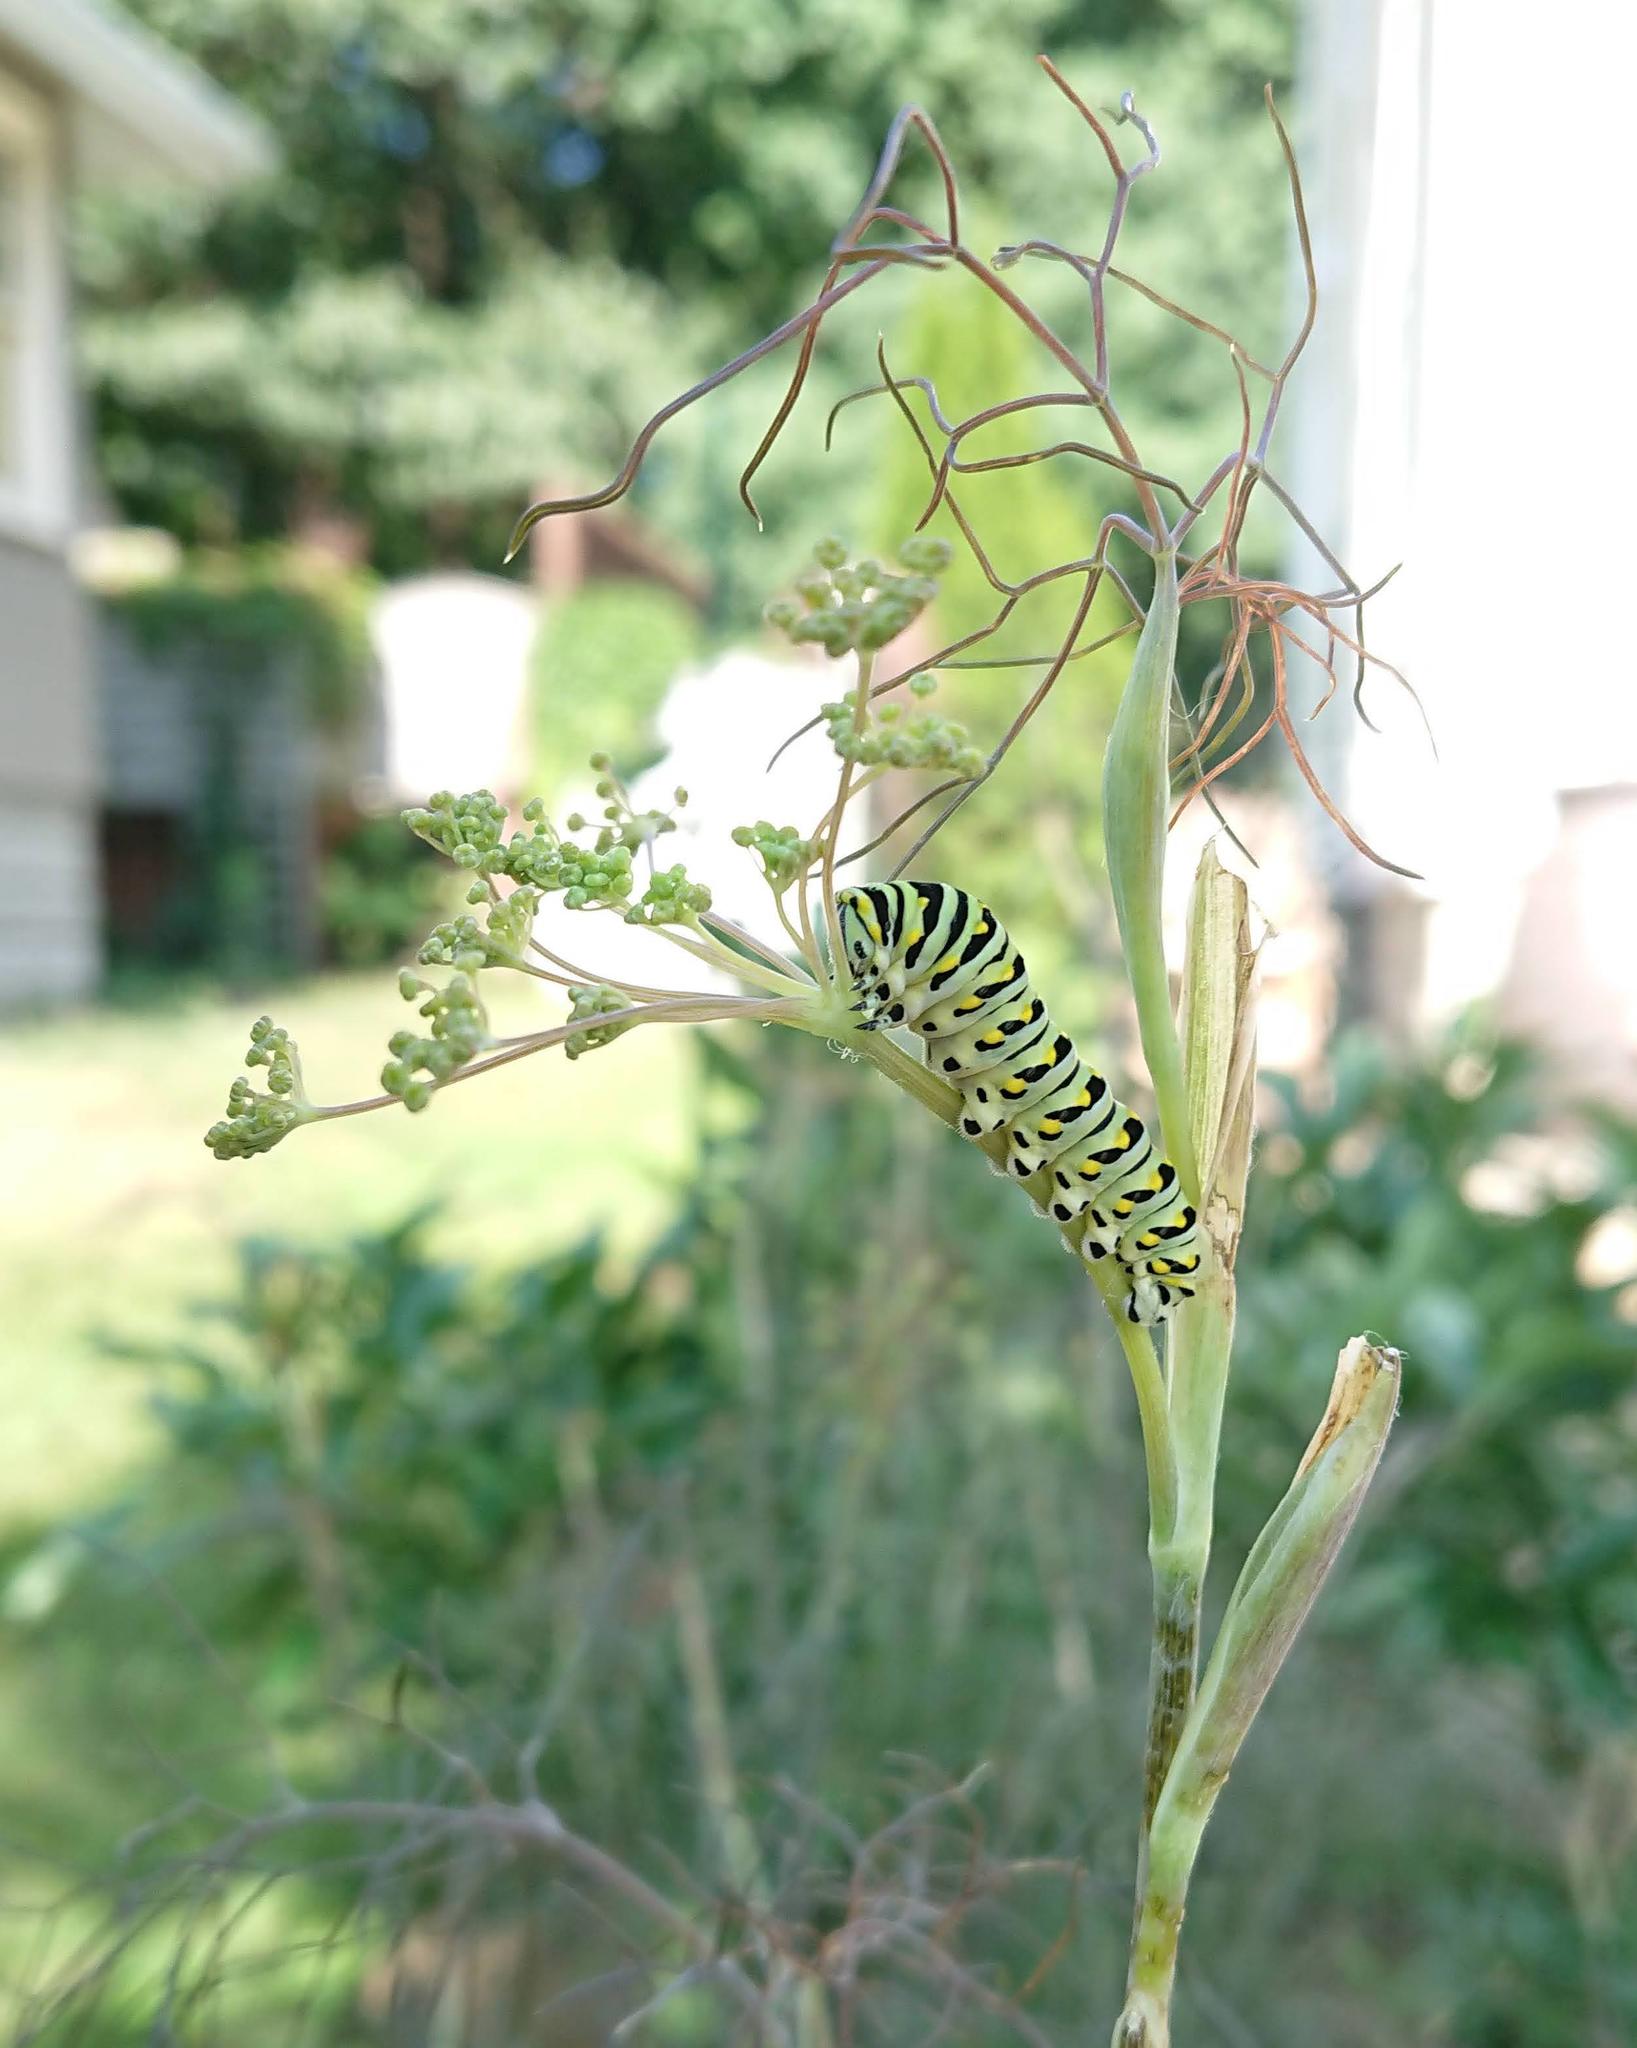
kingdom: Animalia
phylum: Arthropoda
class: Insecta
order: Lepidoptera
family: Papilionidae
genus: Papilio
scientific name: Papilio polyxenes
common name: Black swallowtail
